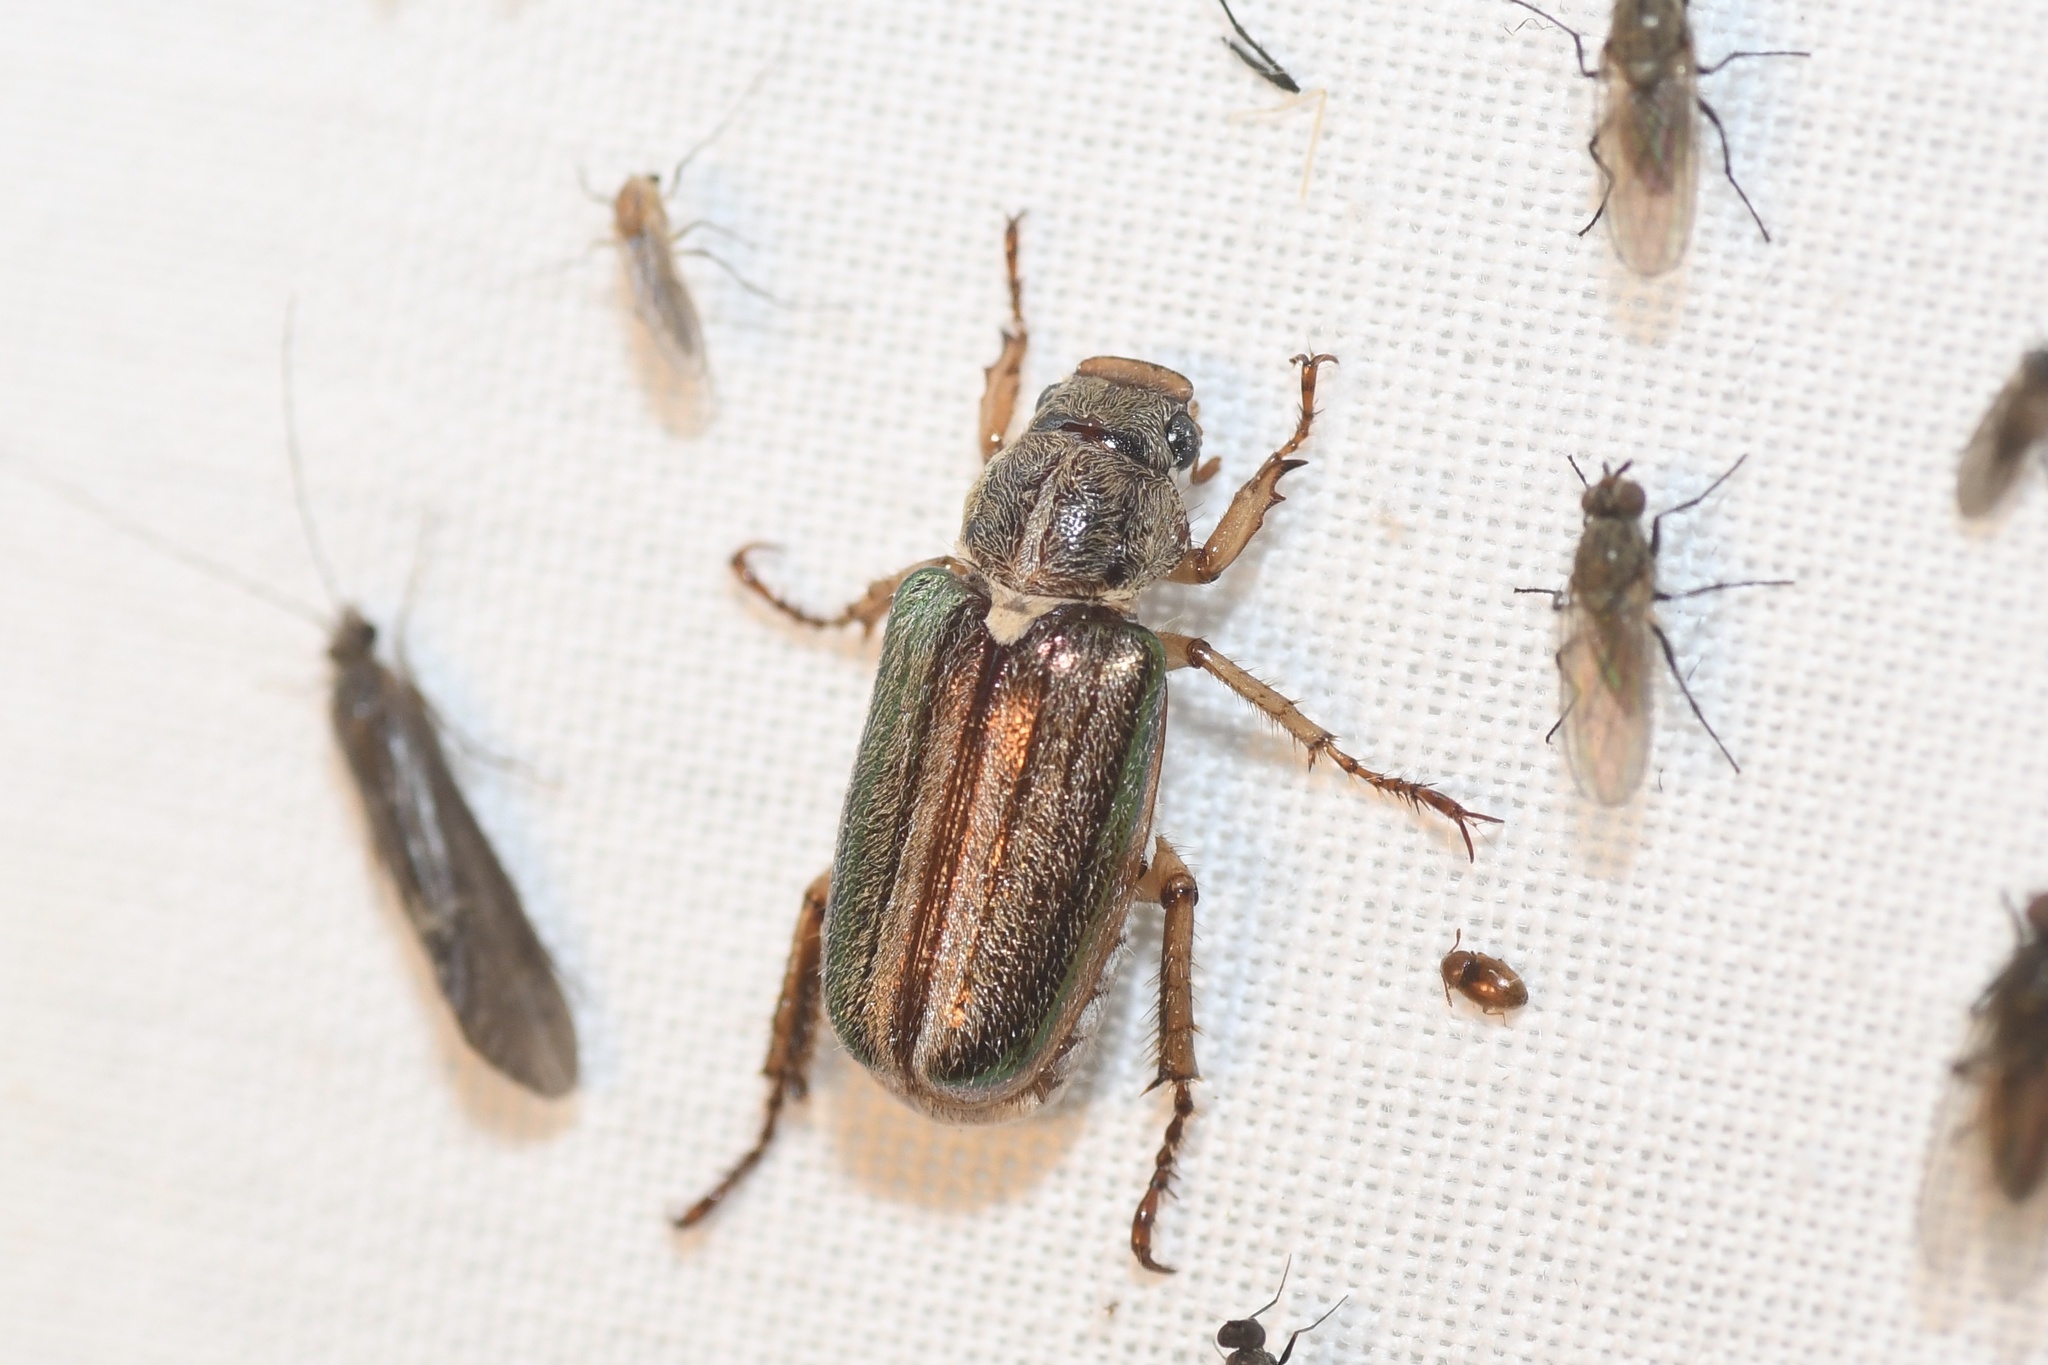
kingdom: Animalia
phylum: Arthropoda
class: Insecta
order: Coleoptera
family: Scarabaeidae
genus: Dichelonyx
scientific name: Dichelonyx albicollis
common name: White-necked pine-beetle
